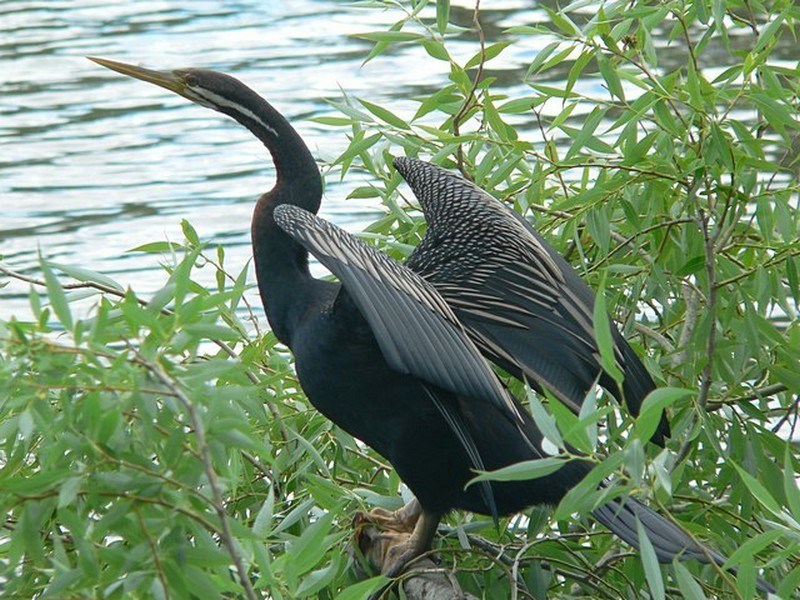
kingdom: Animalia
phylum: Chordata
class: Aves
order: Suliformes
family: Anhingidae
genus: Anhinga
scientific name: Anhinga novaehollandiae
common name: Australasian darter
